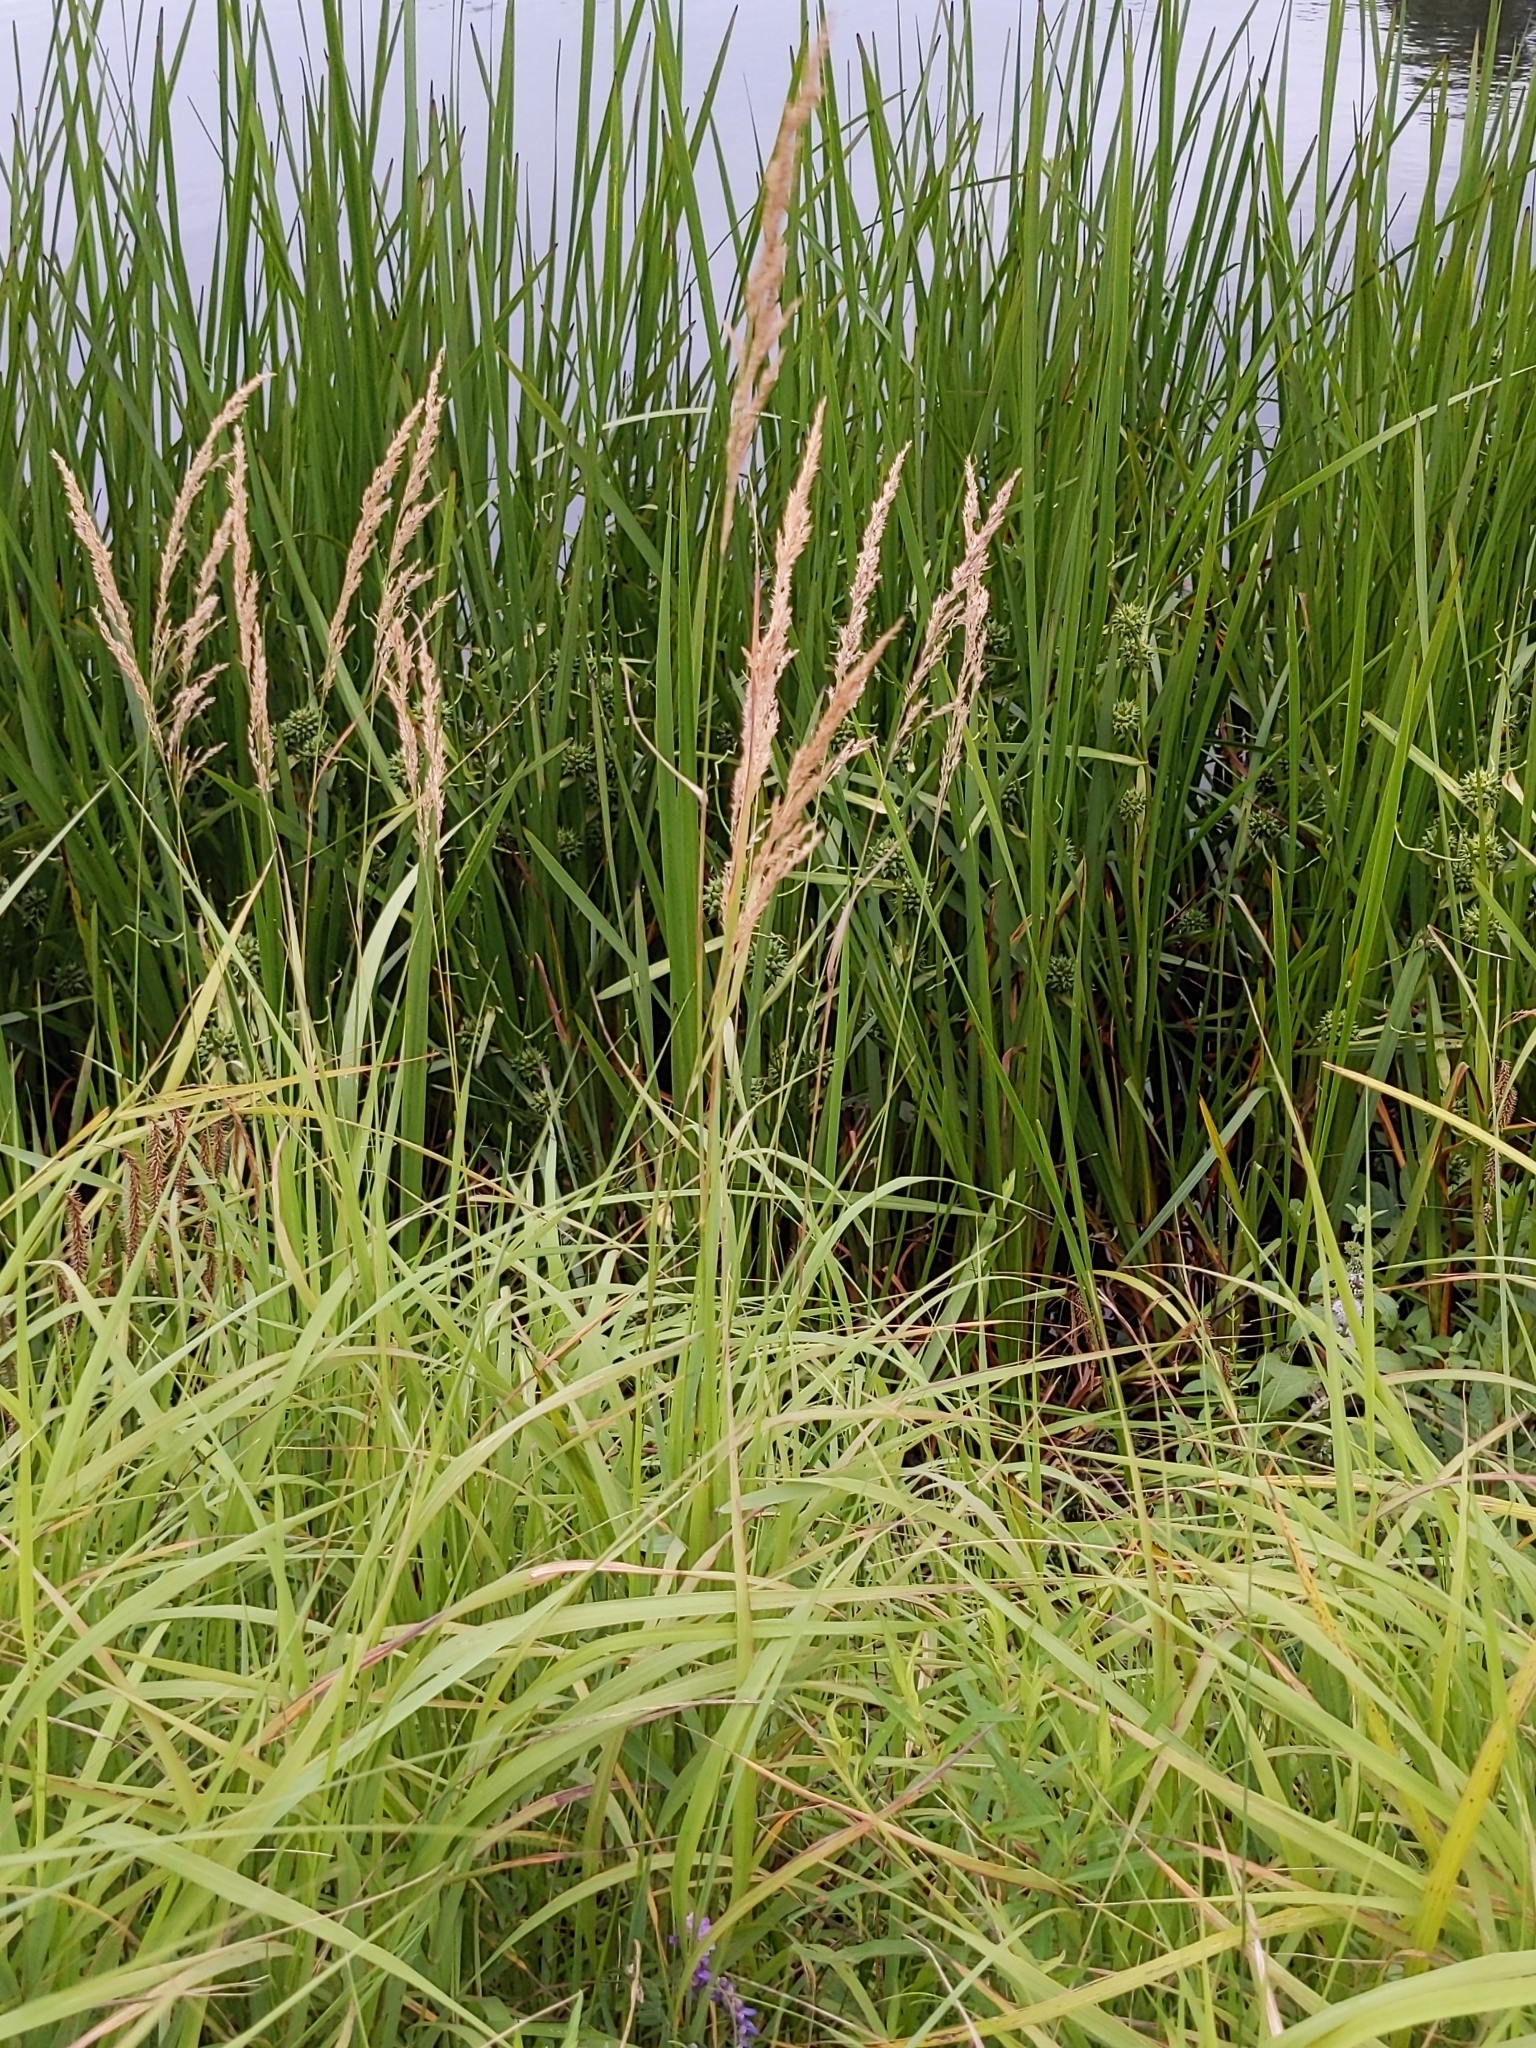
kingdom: Plantae
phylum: Tracheophyta
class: Liliopsida
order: Poales
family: Poaceae
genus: Calamagrostis
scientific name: Calamagrostis canadensis
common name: Canada bluejoint
